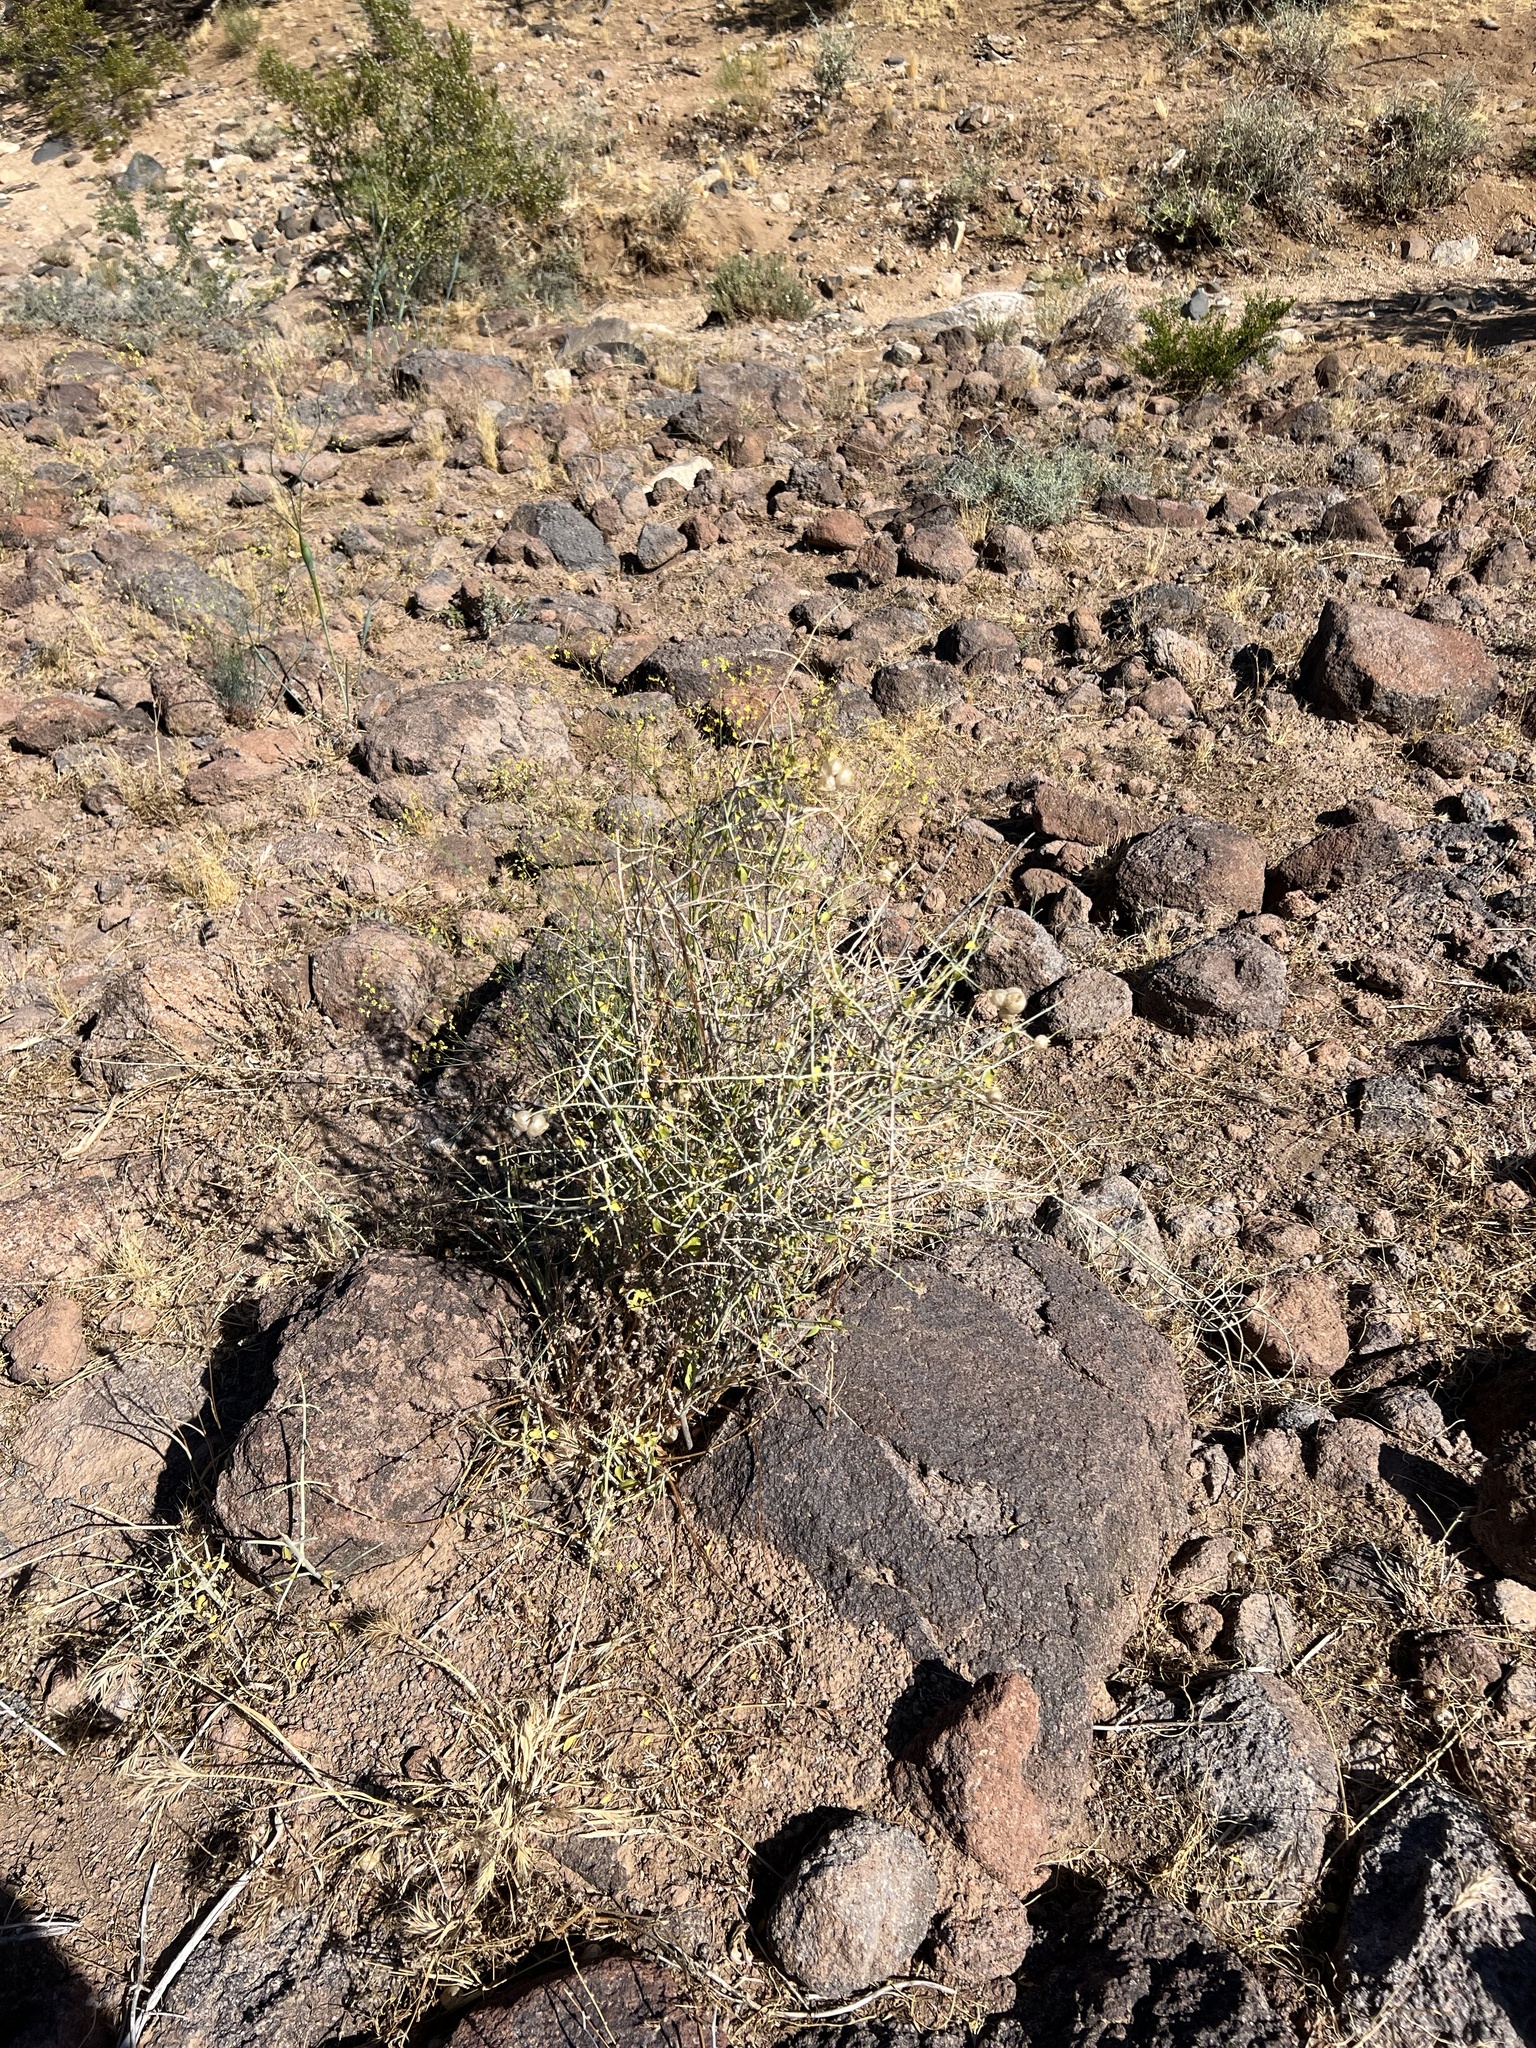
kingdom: Plantae
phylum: Tracheophyta
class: Magnoliopsida
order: Lamiales
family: Lamiaceae
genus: Scutellaria
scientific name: Scutellaria mexicana
